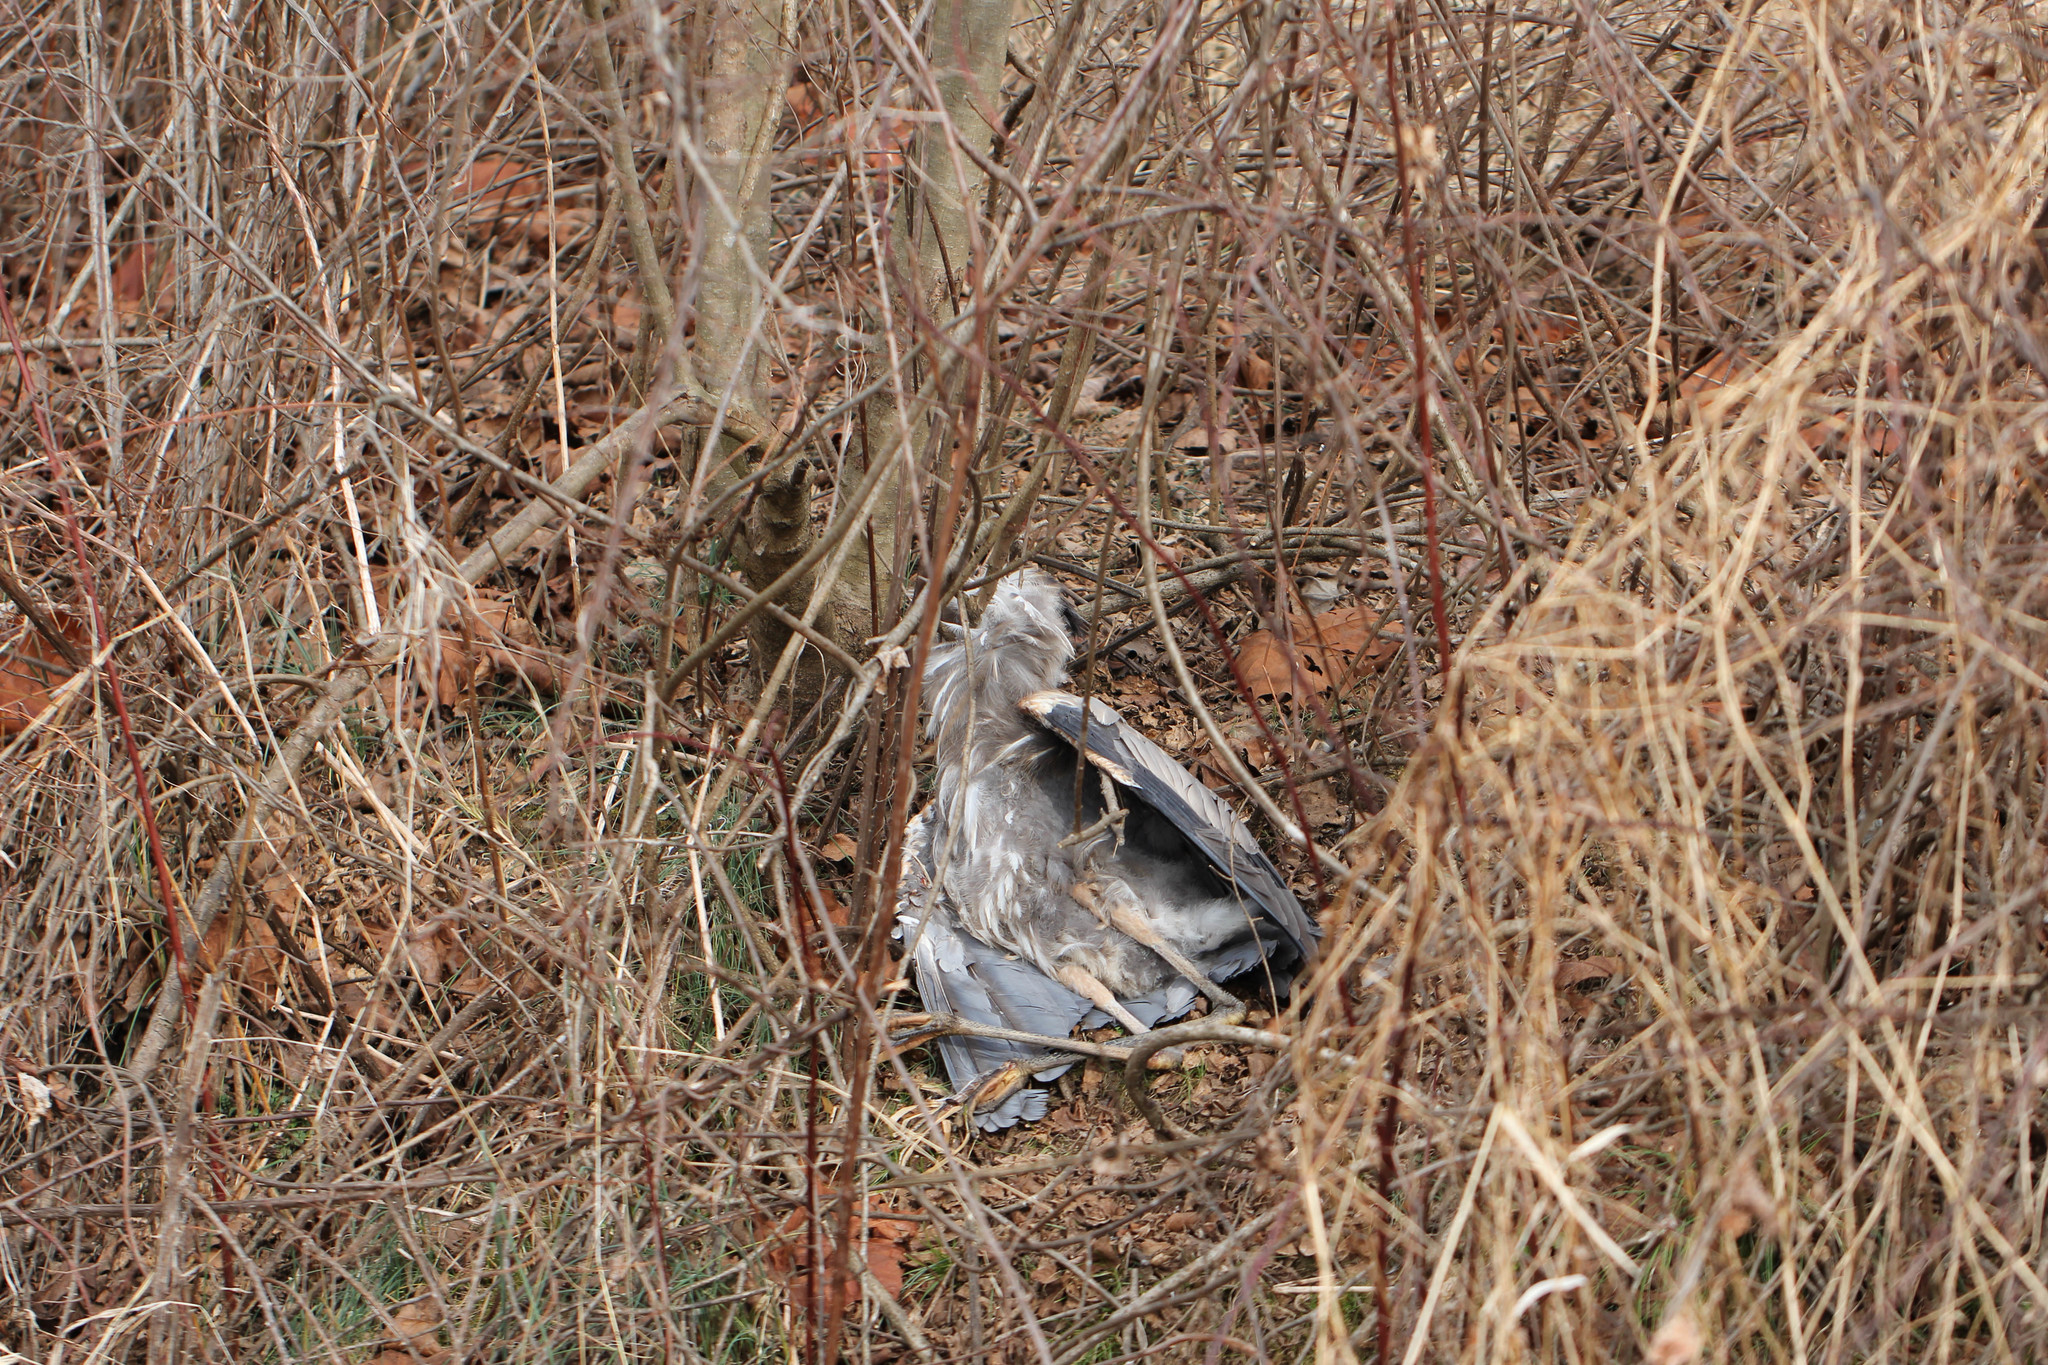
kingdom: Animalia
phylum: Chordata
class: Aves
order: Pelecaniformes
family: Ardeidae
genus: Ardea
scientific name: Ardea herodias
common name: Great blue heron
